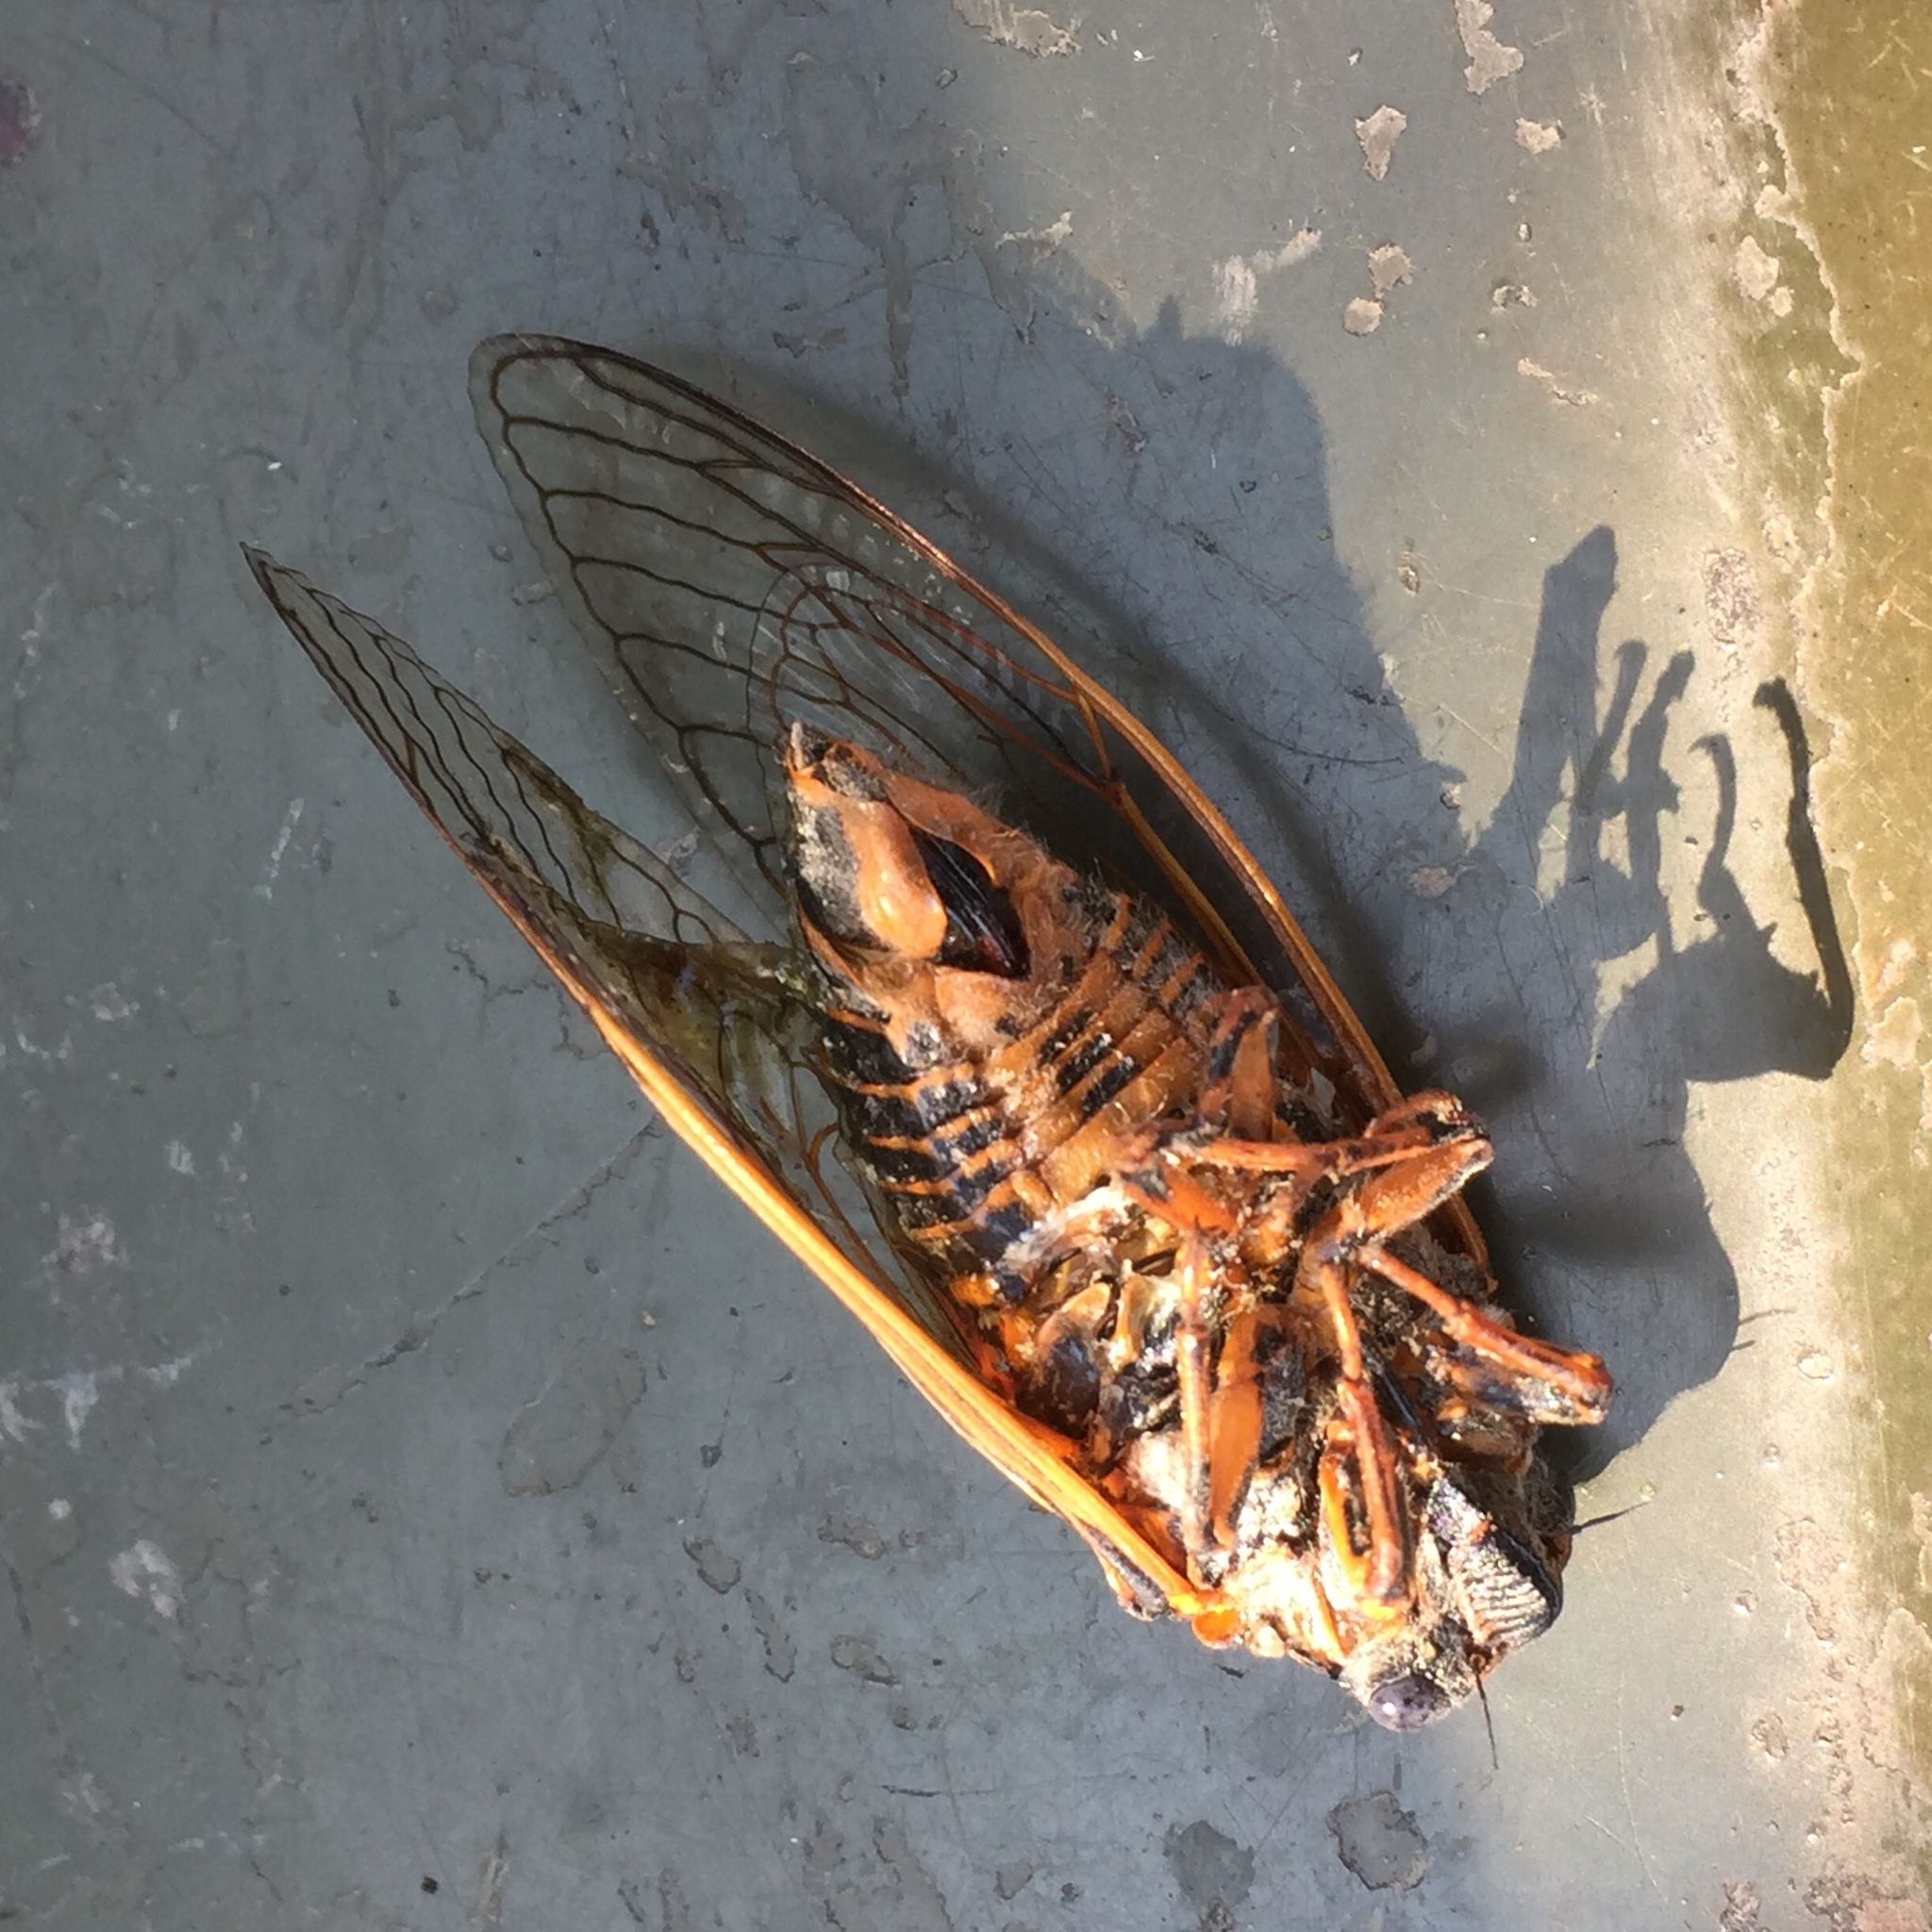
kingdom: Animalia
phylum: Arthropoda
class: Insecta
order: Hemiptera
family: Cicadidae
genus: Tibicina
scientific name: Tibicina steveni
